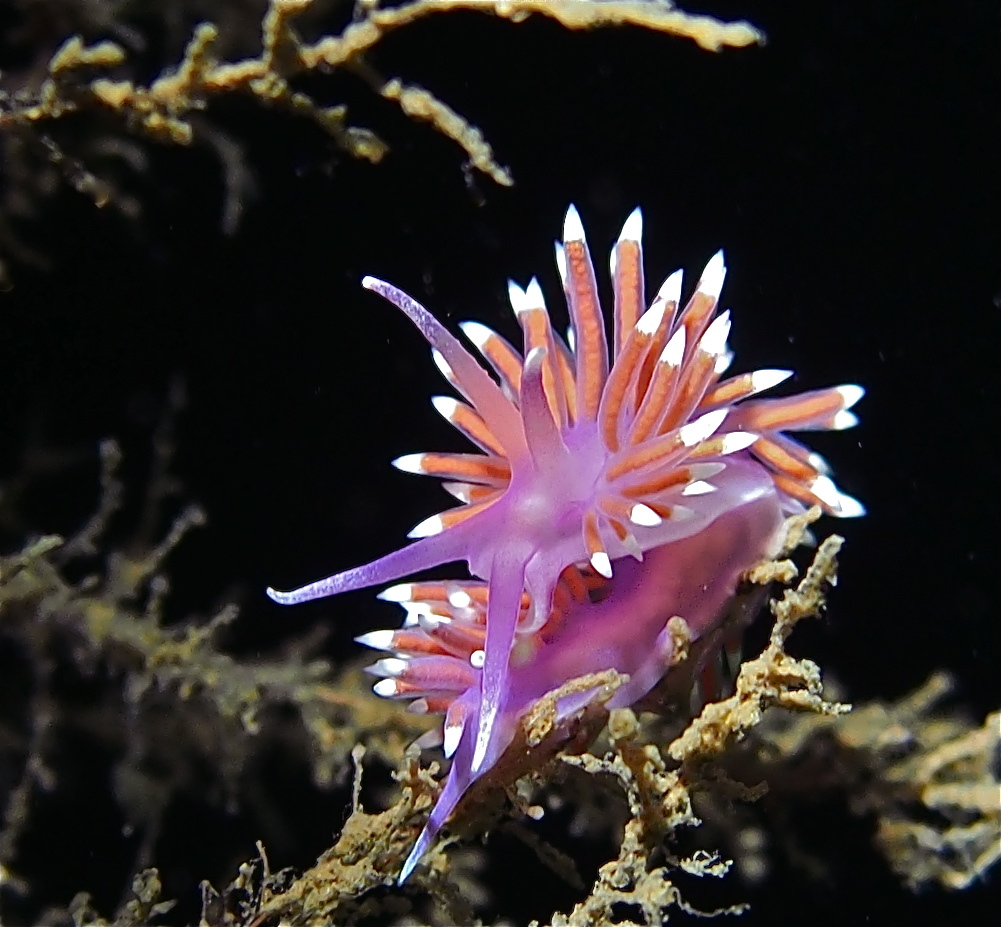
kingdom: Animalia
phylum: Mollusca
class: Gastropoda
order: Nudibranchia
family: Flabellinidae
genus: Edmundsella
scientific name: Edmundsella pedata
